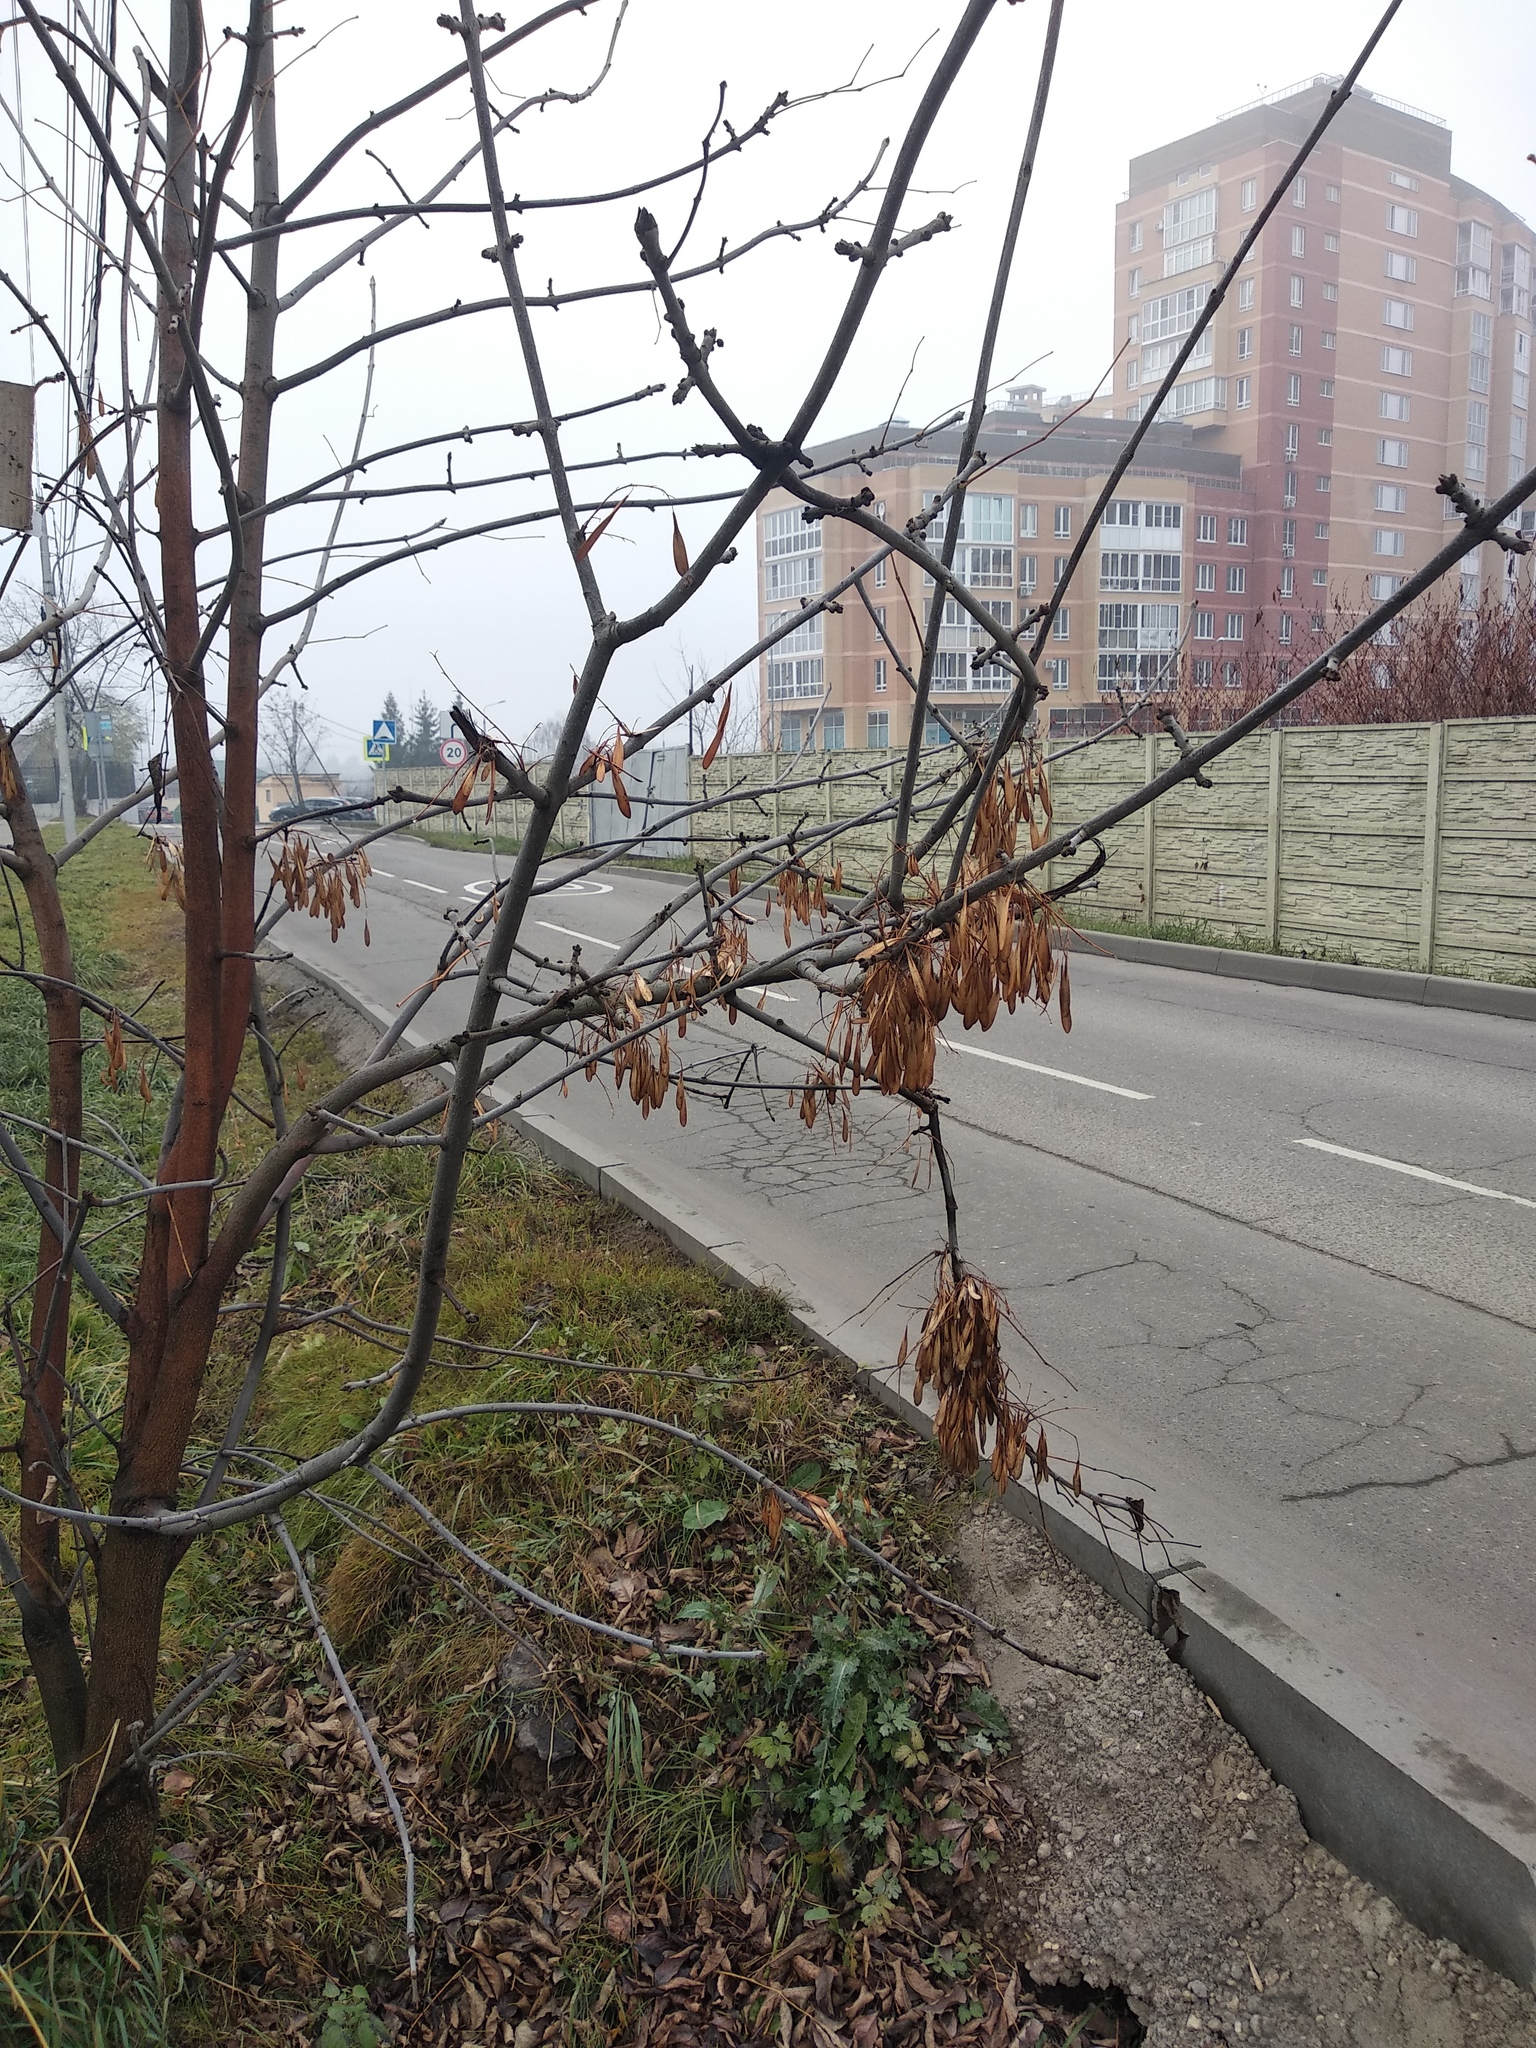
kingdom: Plantae
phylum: Tracheophyta
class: Magnoliopsida
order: Sapindales
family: Sapindaceae
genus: Acer
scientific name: Acer negundo
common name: Ashleaf maple
